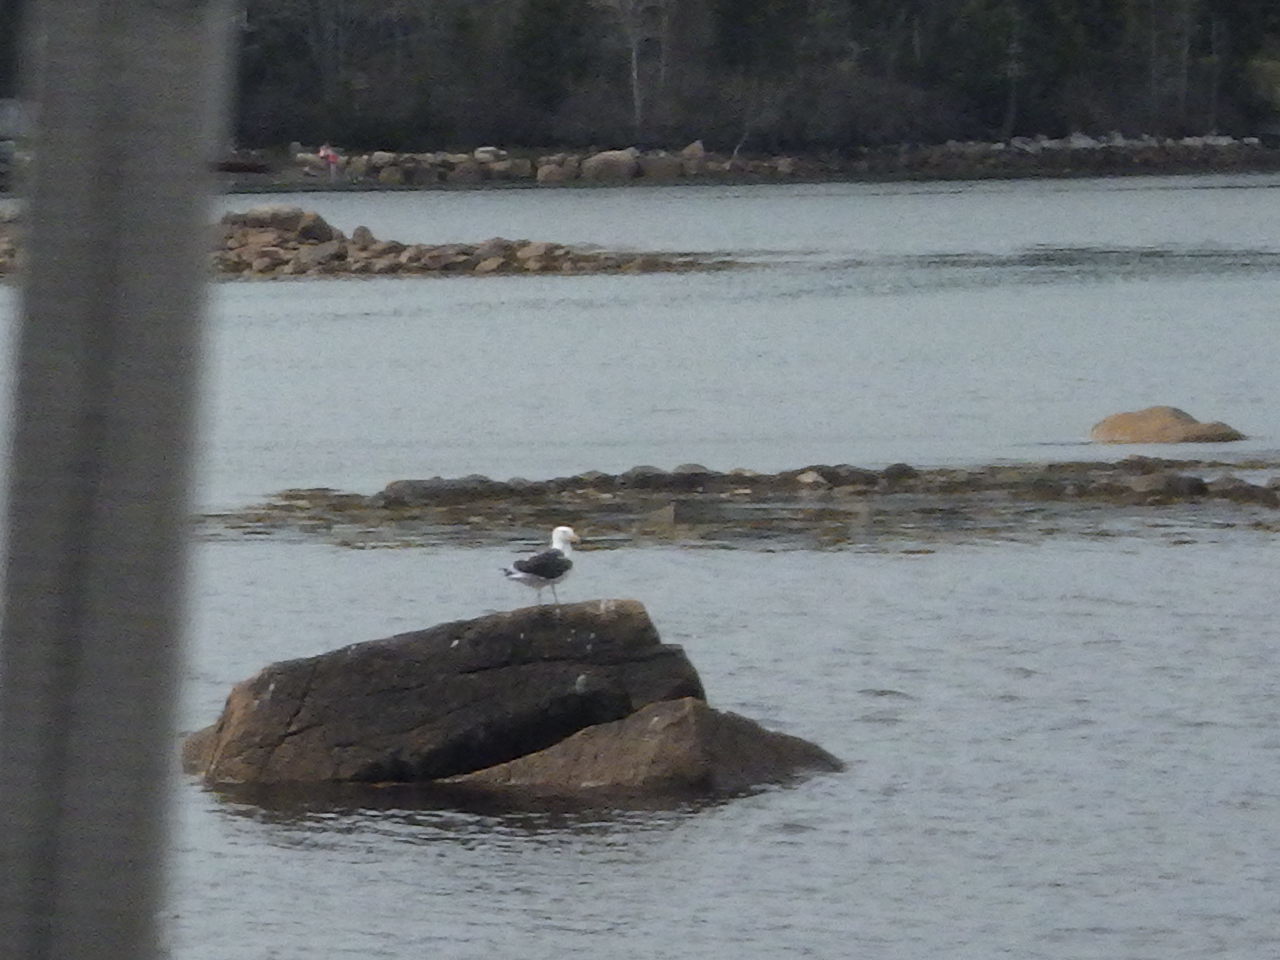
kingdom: Animalia
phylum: Chordata
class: Aves
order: Charadriiformes
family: Laridae
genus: Larus
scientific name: Larus marinus
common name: Great black-backed gull
